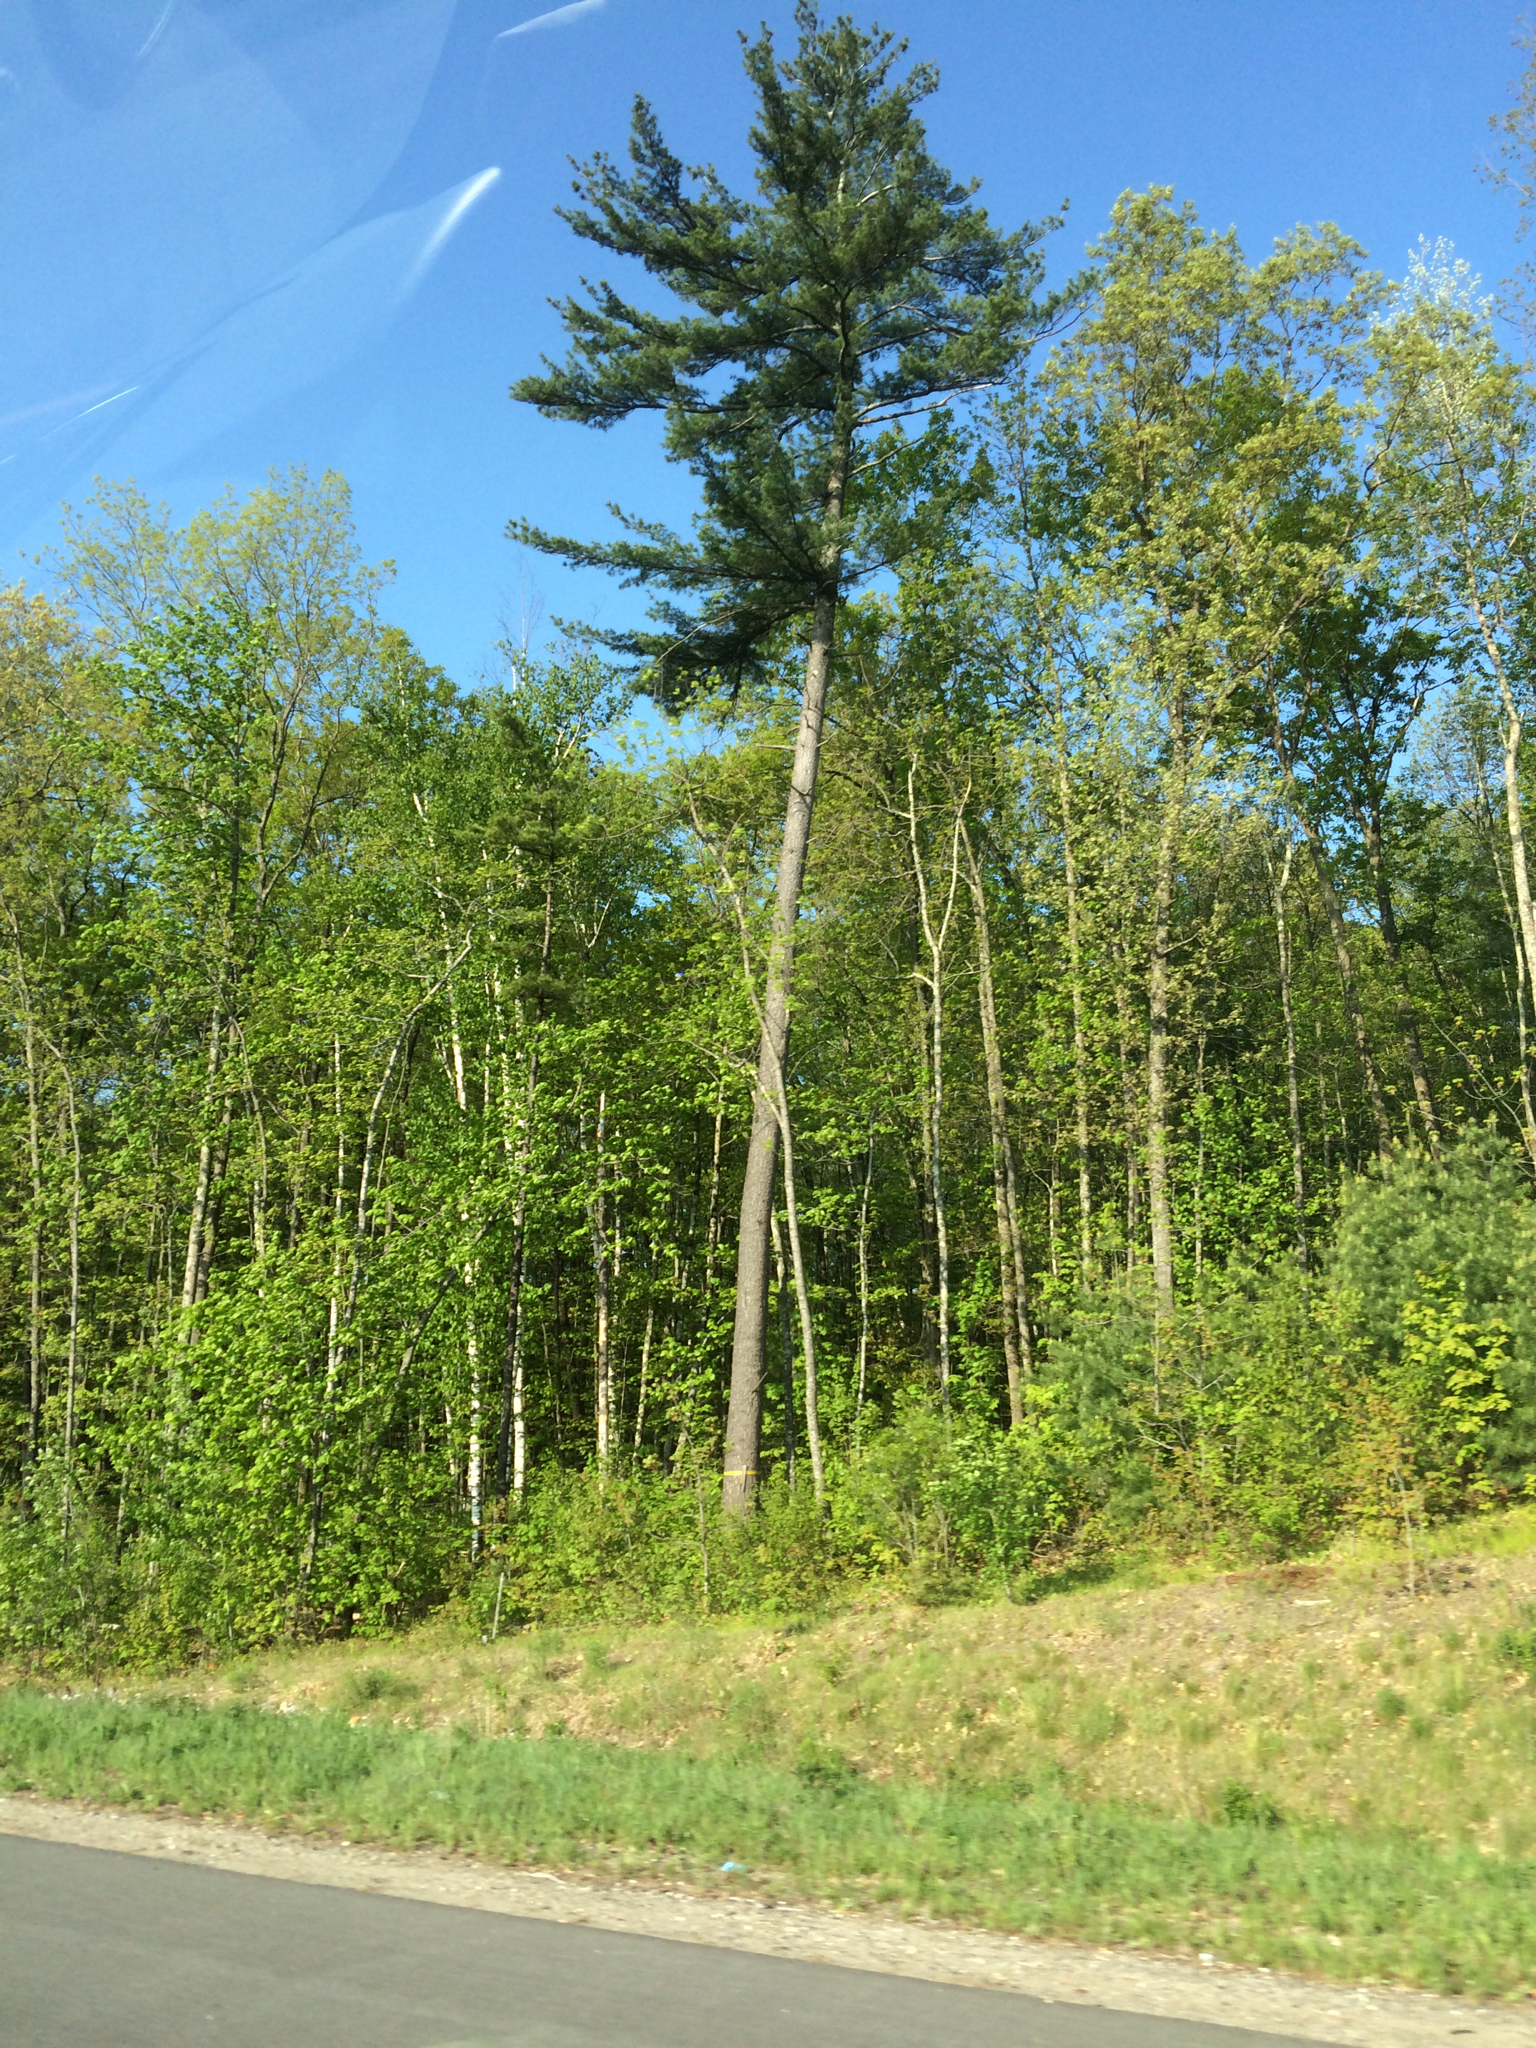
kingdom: Plantae
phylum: Tracheophyta
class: Pinopsida
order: Pinales
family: Pinaceae
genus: Pinus
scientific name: Pinus strobus
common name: Weymouth pine
